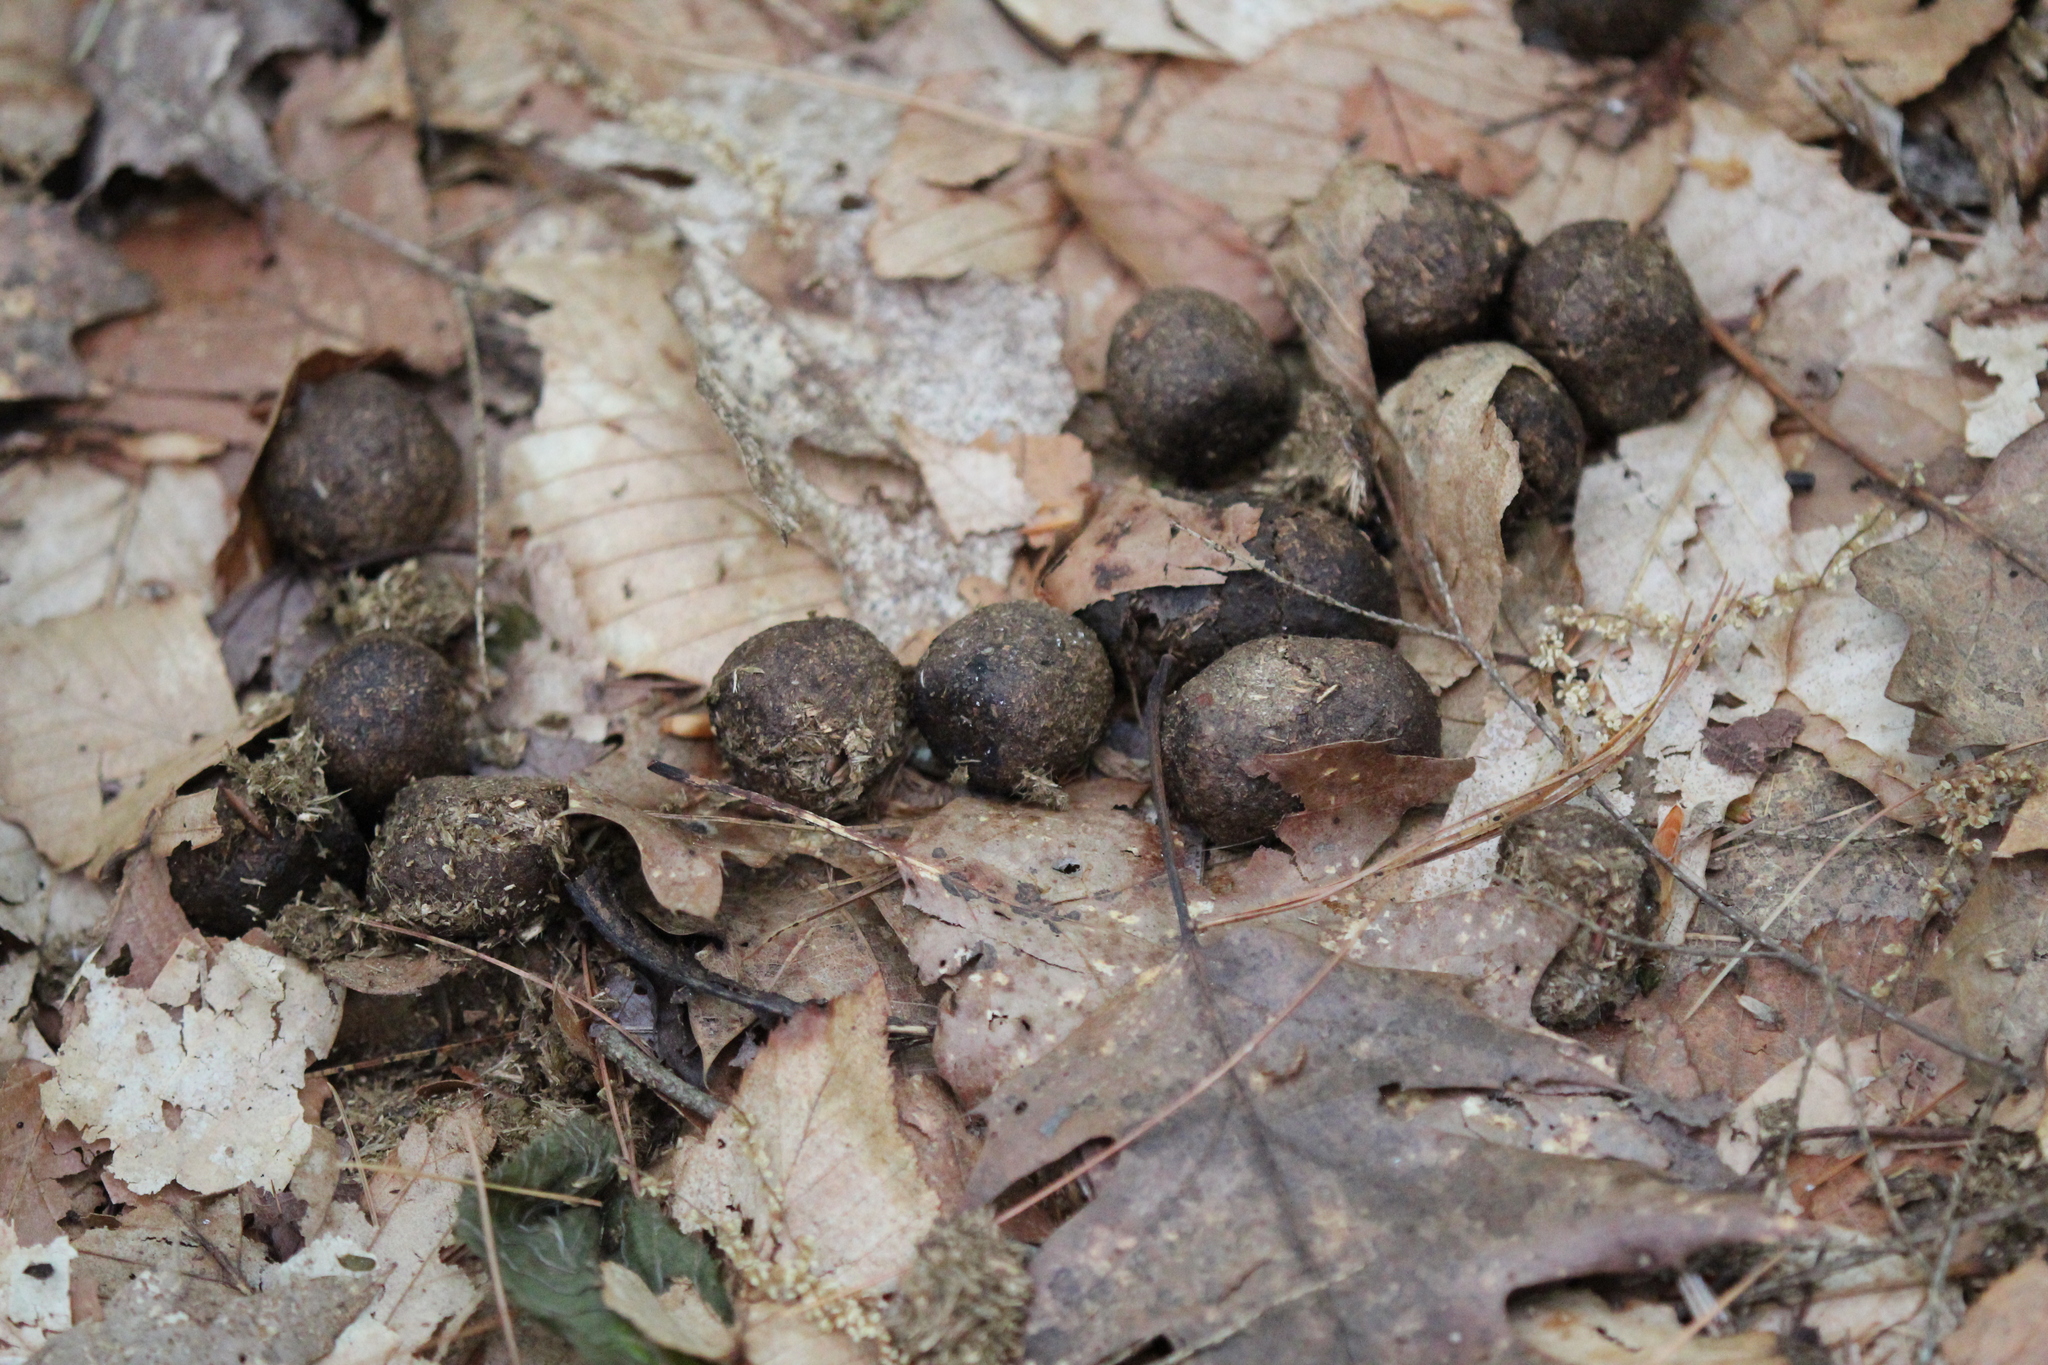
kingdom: Animalia
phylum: Chordata
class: Mammalia
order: Artiodactyla
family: Cervidae
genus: Alces
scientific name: Alces alces
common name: Moose
